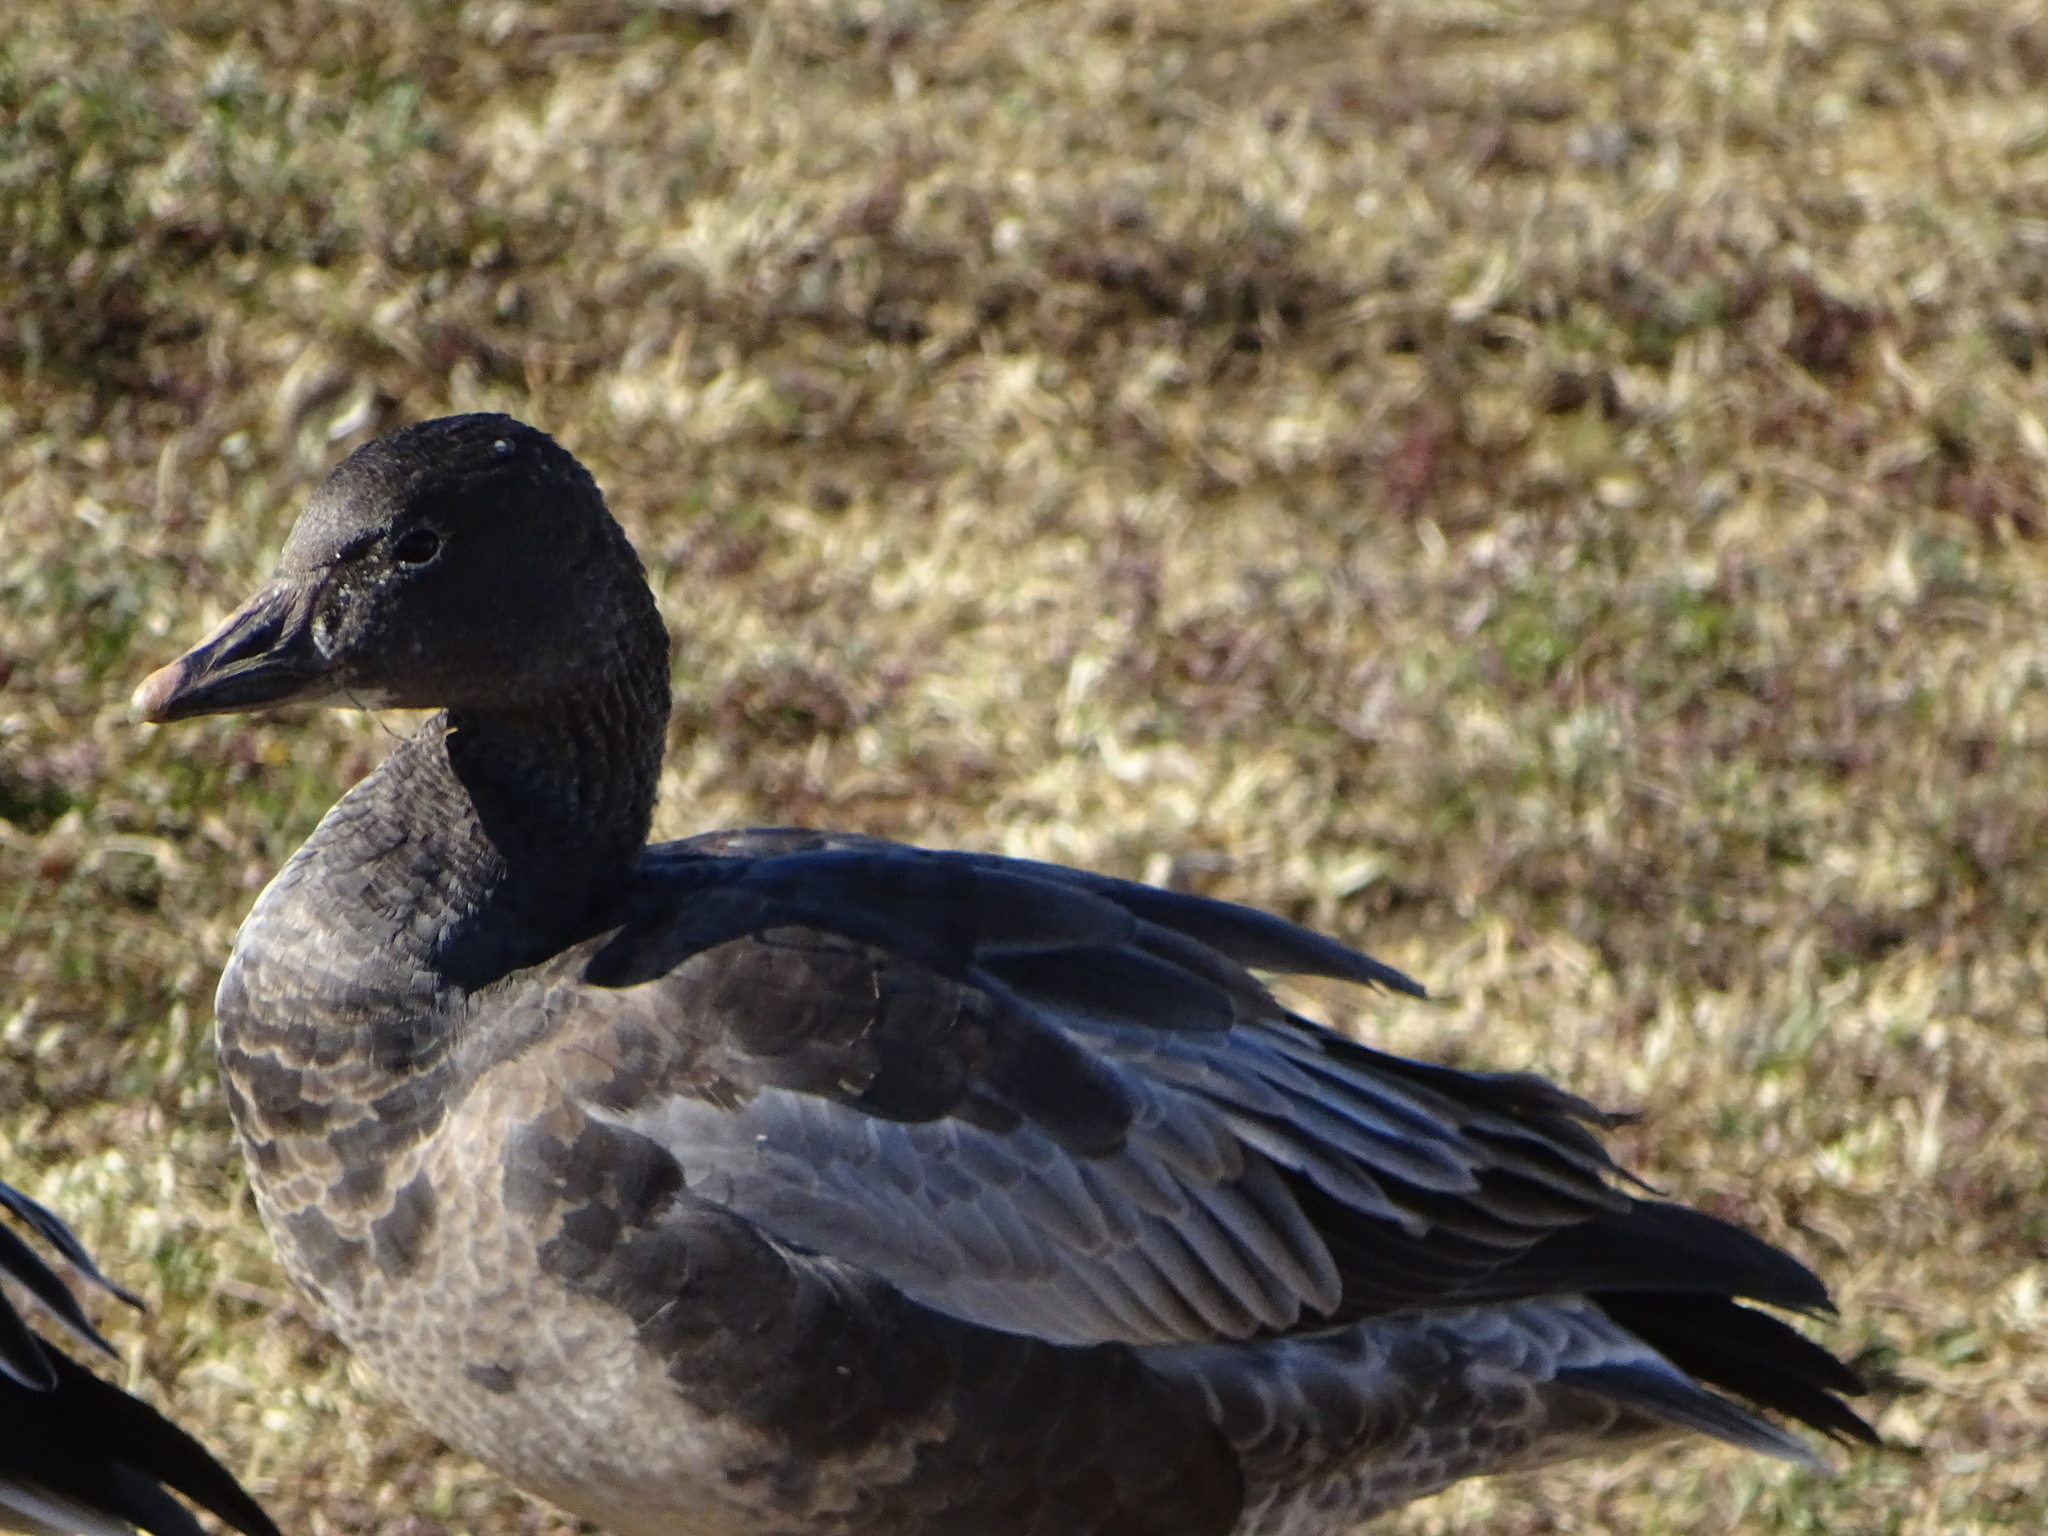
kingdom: Animalia
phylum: Chordata
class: Aves
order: Anseriformes
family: Anatidae
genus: Anser
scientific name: Anser caerulescens
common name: Snow goose
